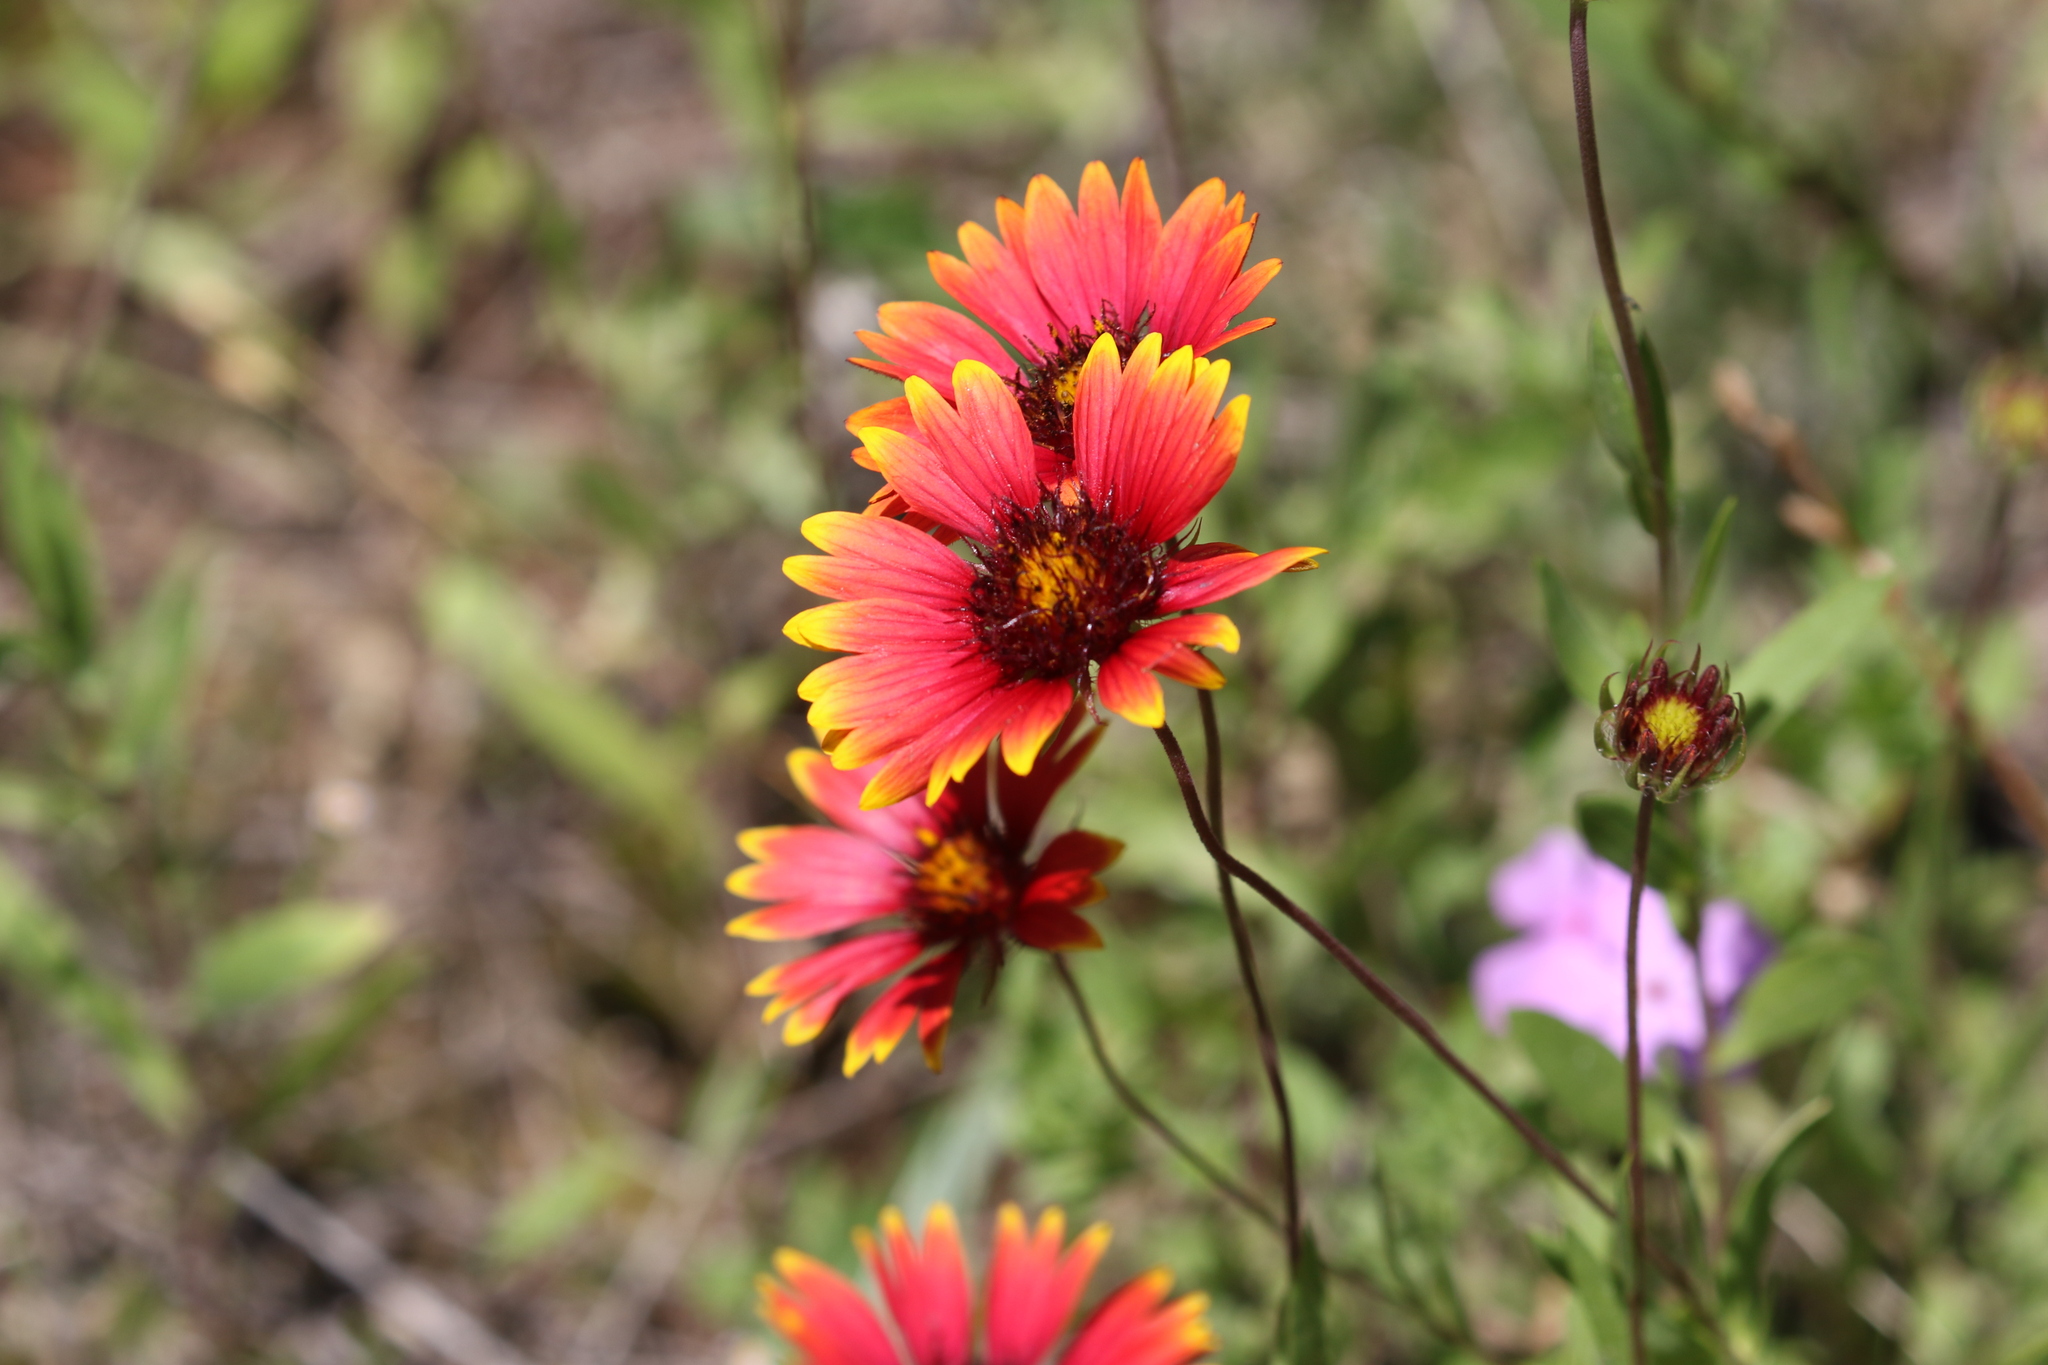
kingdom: Plantae
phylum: Tracheophyta
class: Magnoliopsida
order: Asterales
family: Asteraceae
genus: Gaillardia
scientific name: Gaillardia pulchella
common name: Firewheel
